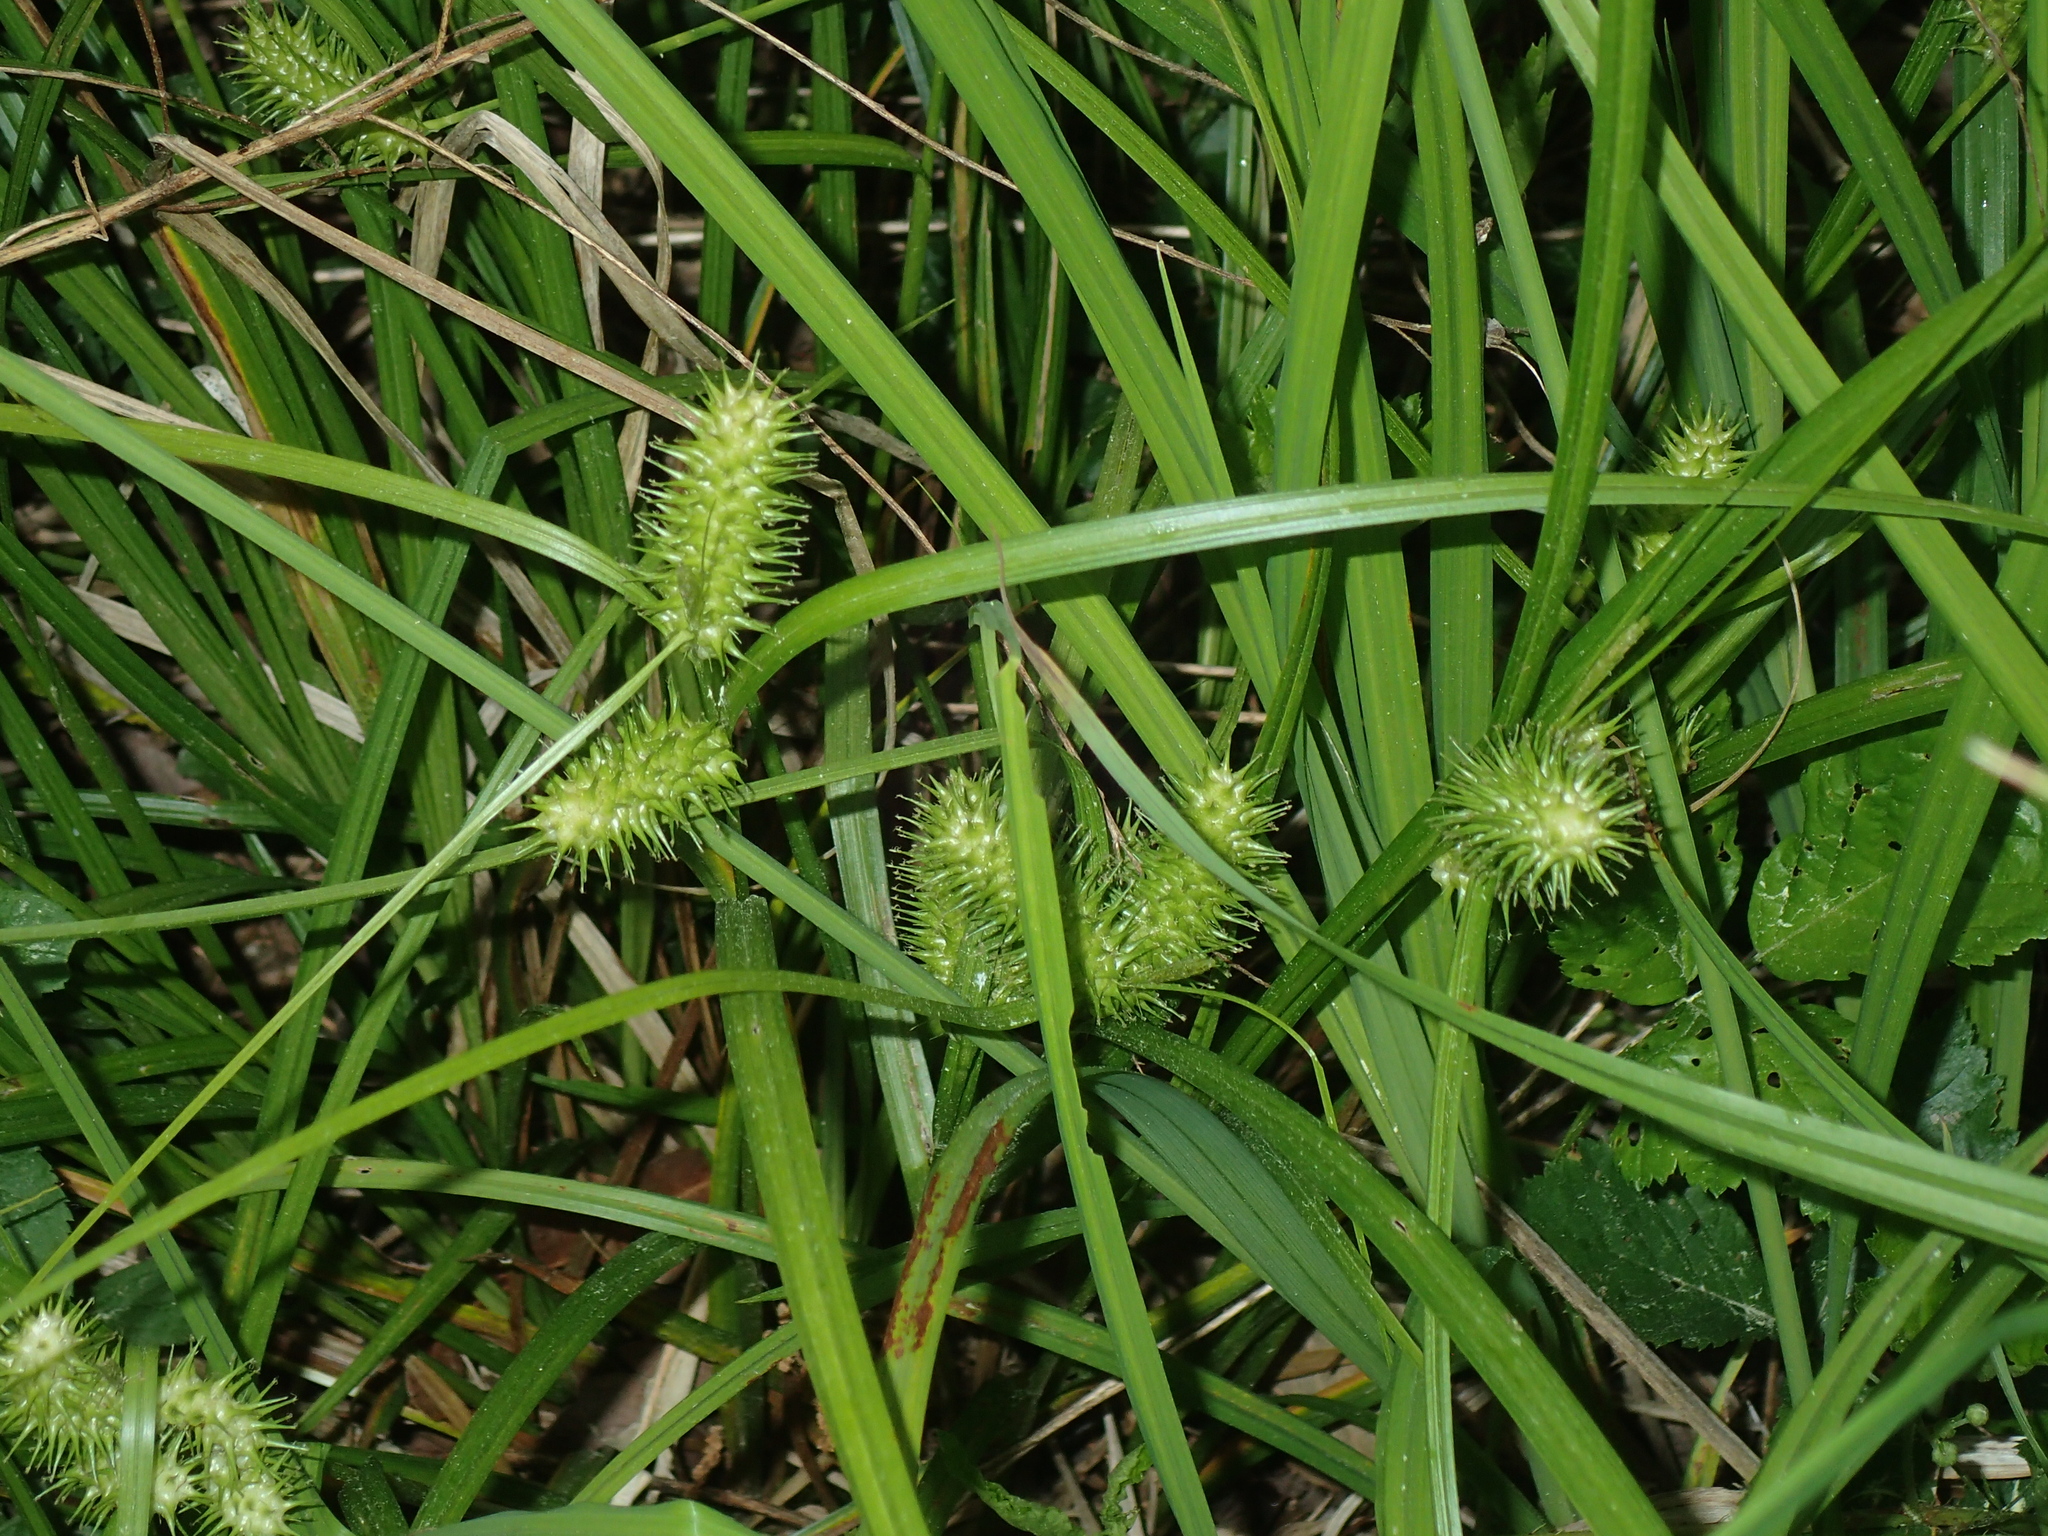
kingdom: Plantae
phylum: Tracheophyta
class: Liliopsida
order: Poales
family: Cyperaceae
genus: Carex
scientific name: Carex lurida
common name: Sallow sedge
